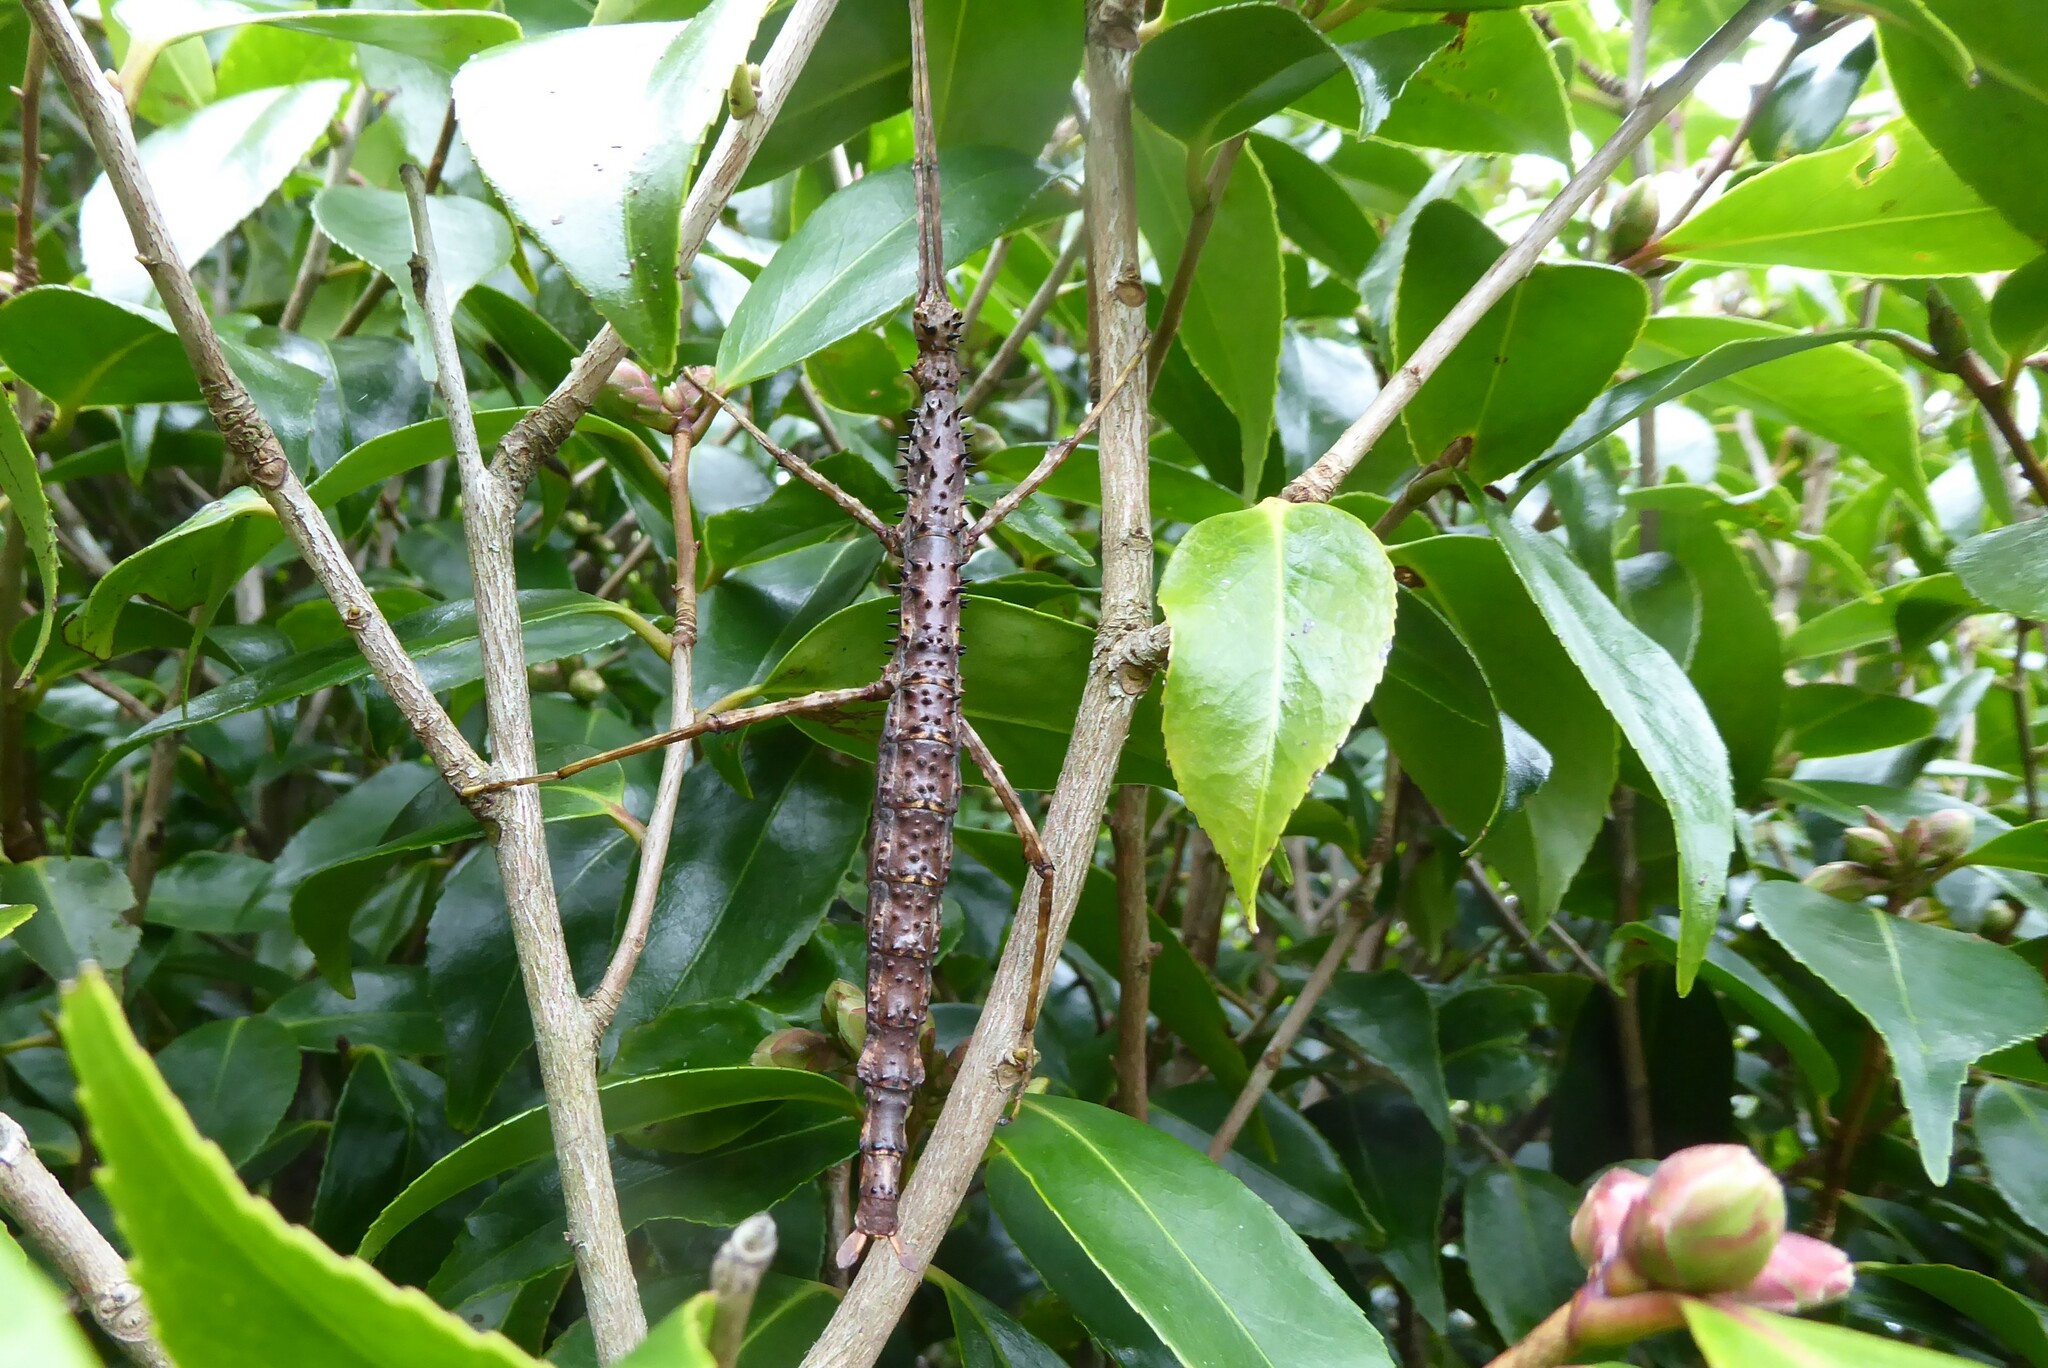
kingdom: Animalia
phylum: Arthropoda
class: Insecta
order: Phasmida
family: Phasmatidae
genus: Acanthoxyla
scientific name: Acanthoxyla prasina
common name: Black-spined stick insect
